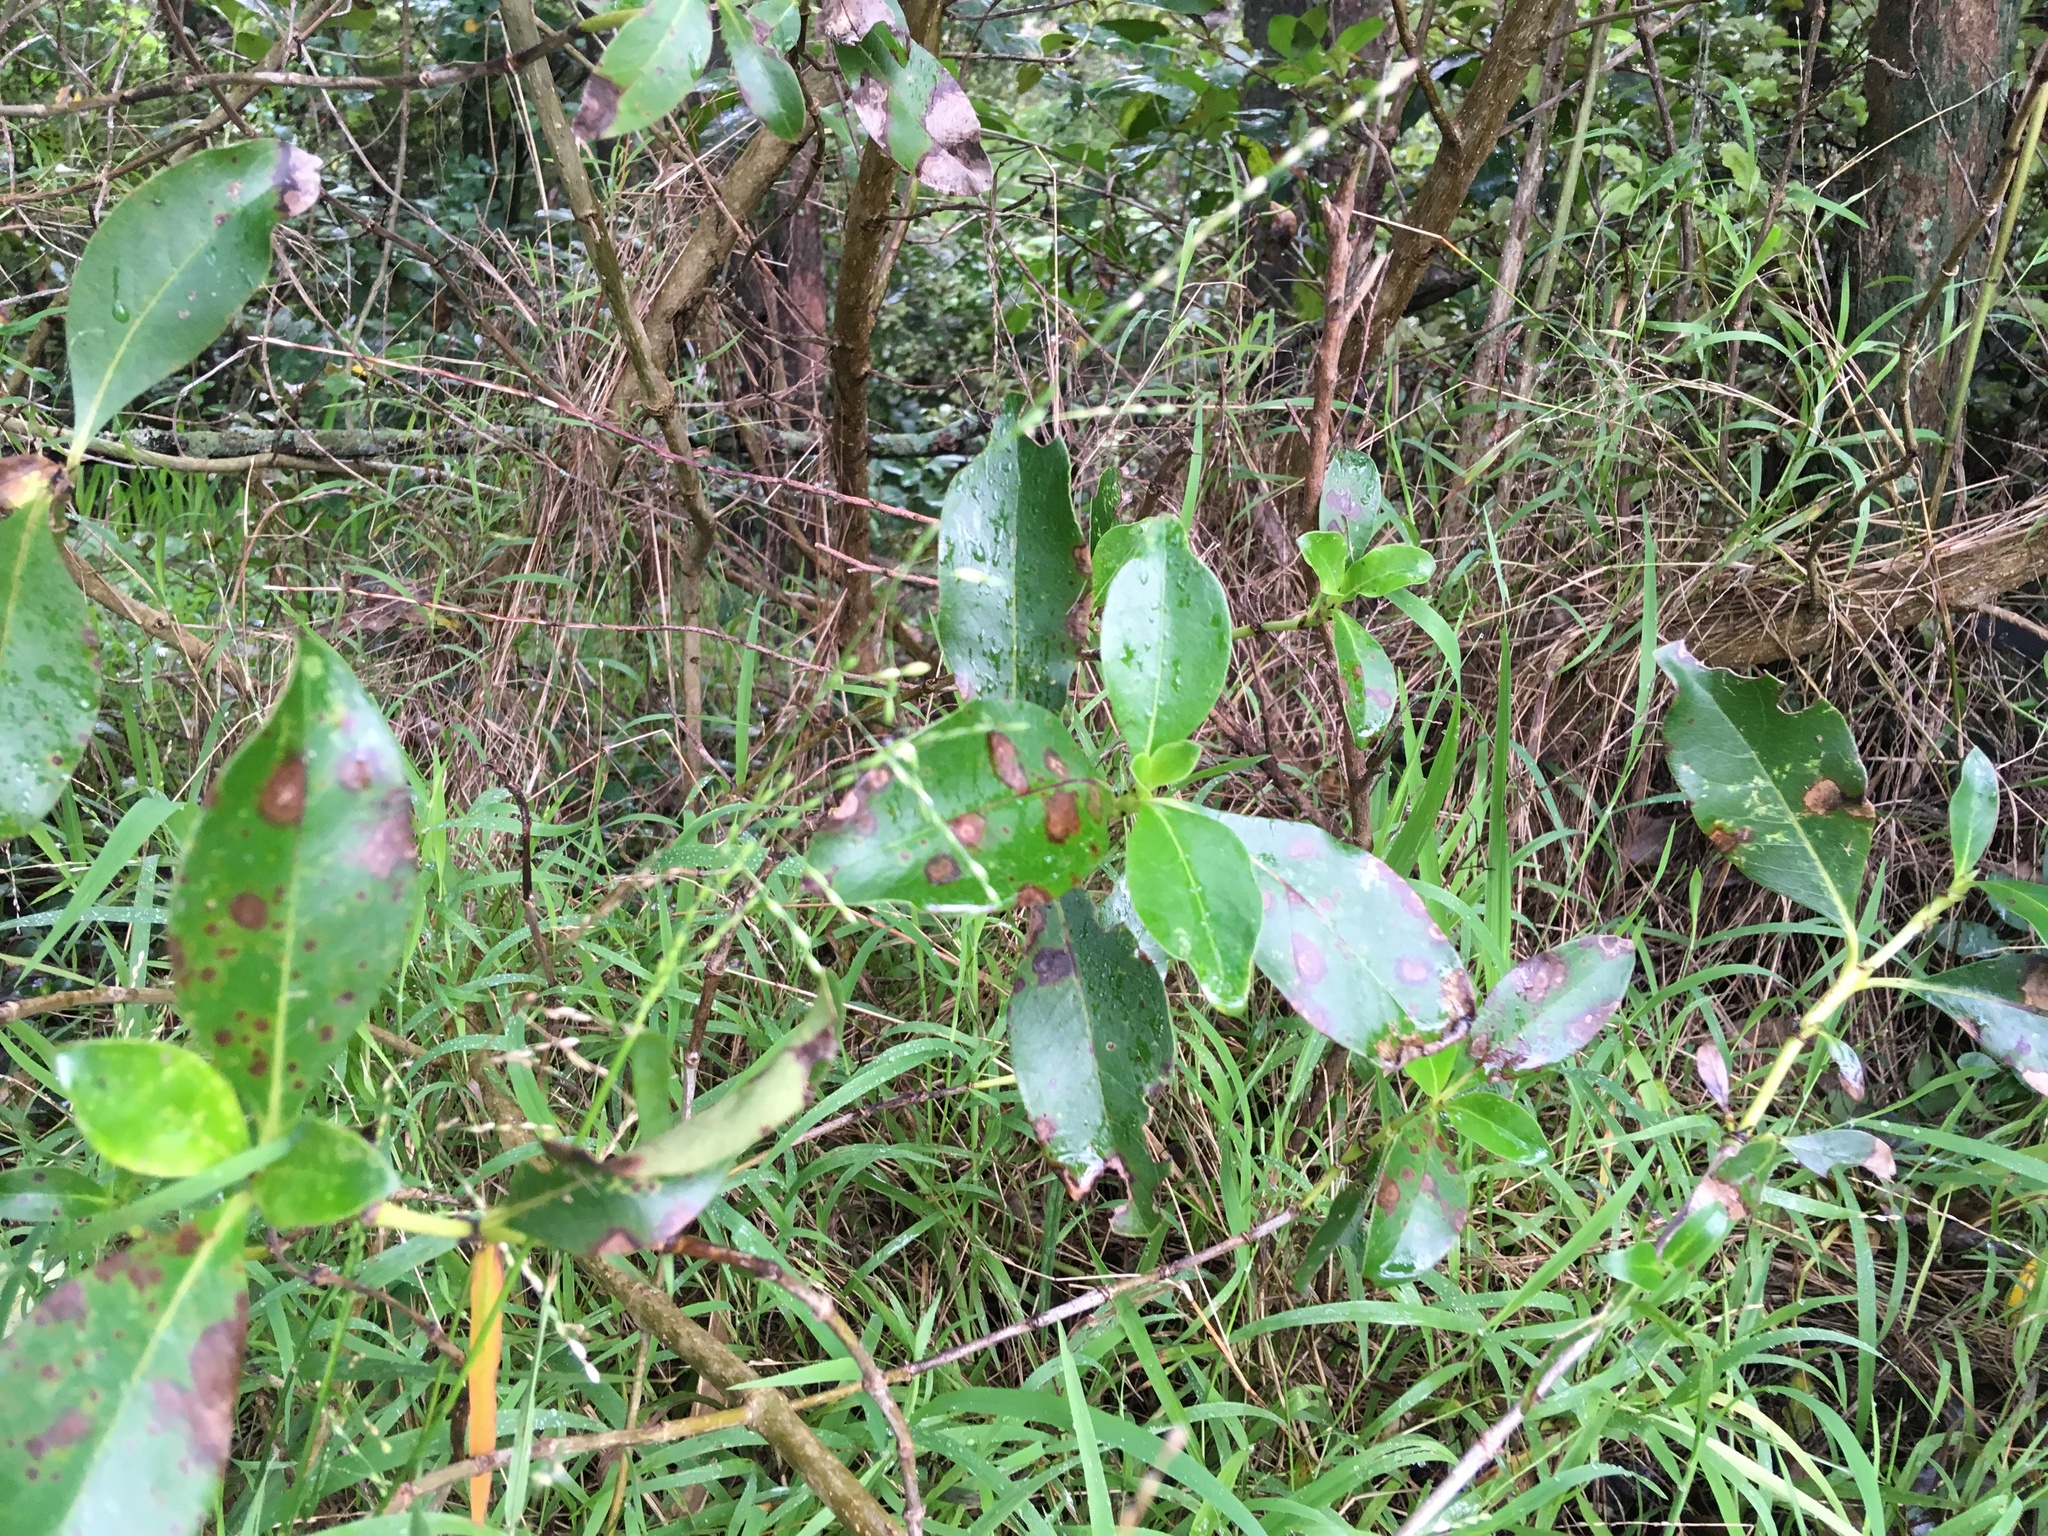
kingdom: Plantae
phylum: Tracheophyta
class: Magnoliopsida
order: Gentianales
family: Rubiaceae
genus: Coprosma
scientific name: Coprosma robusta
